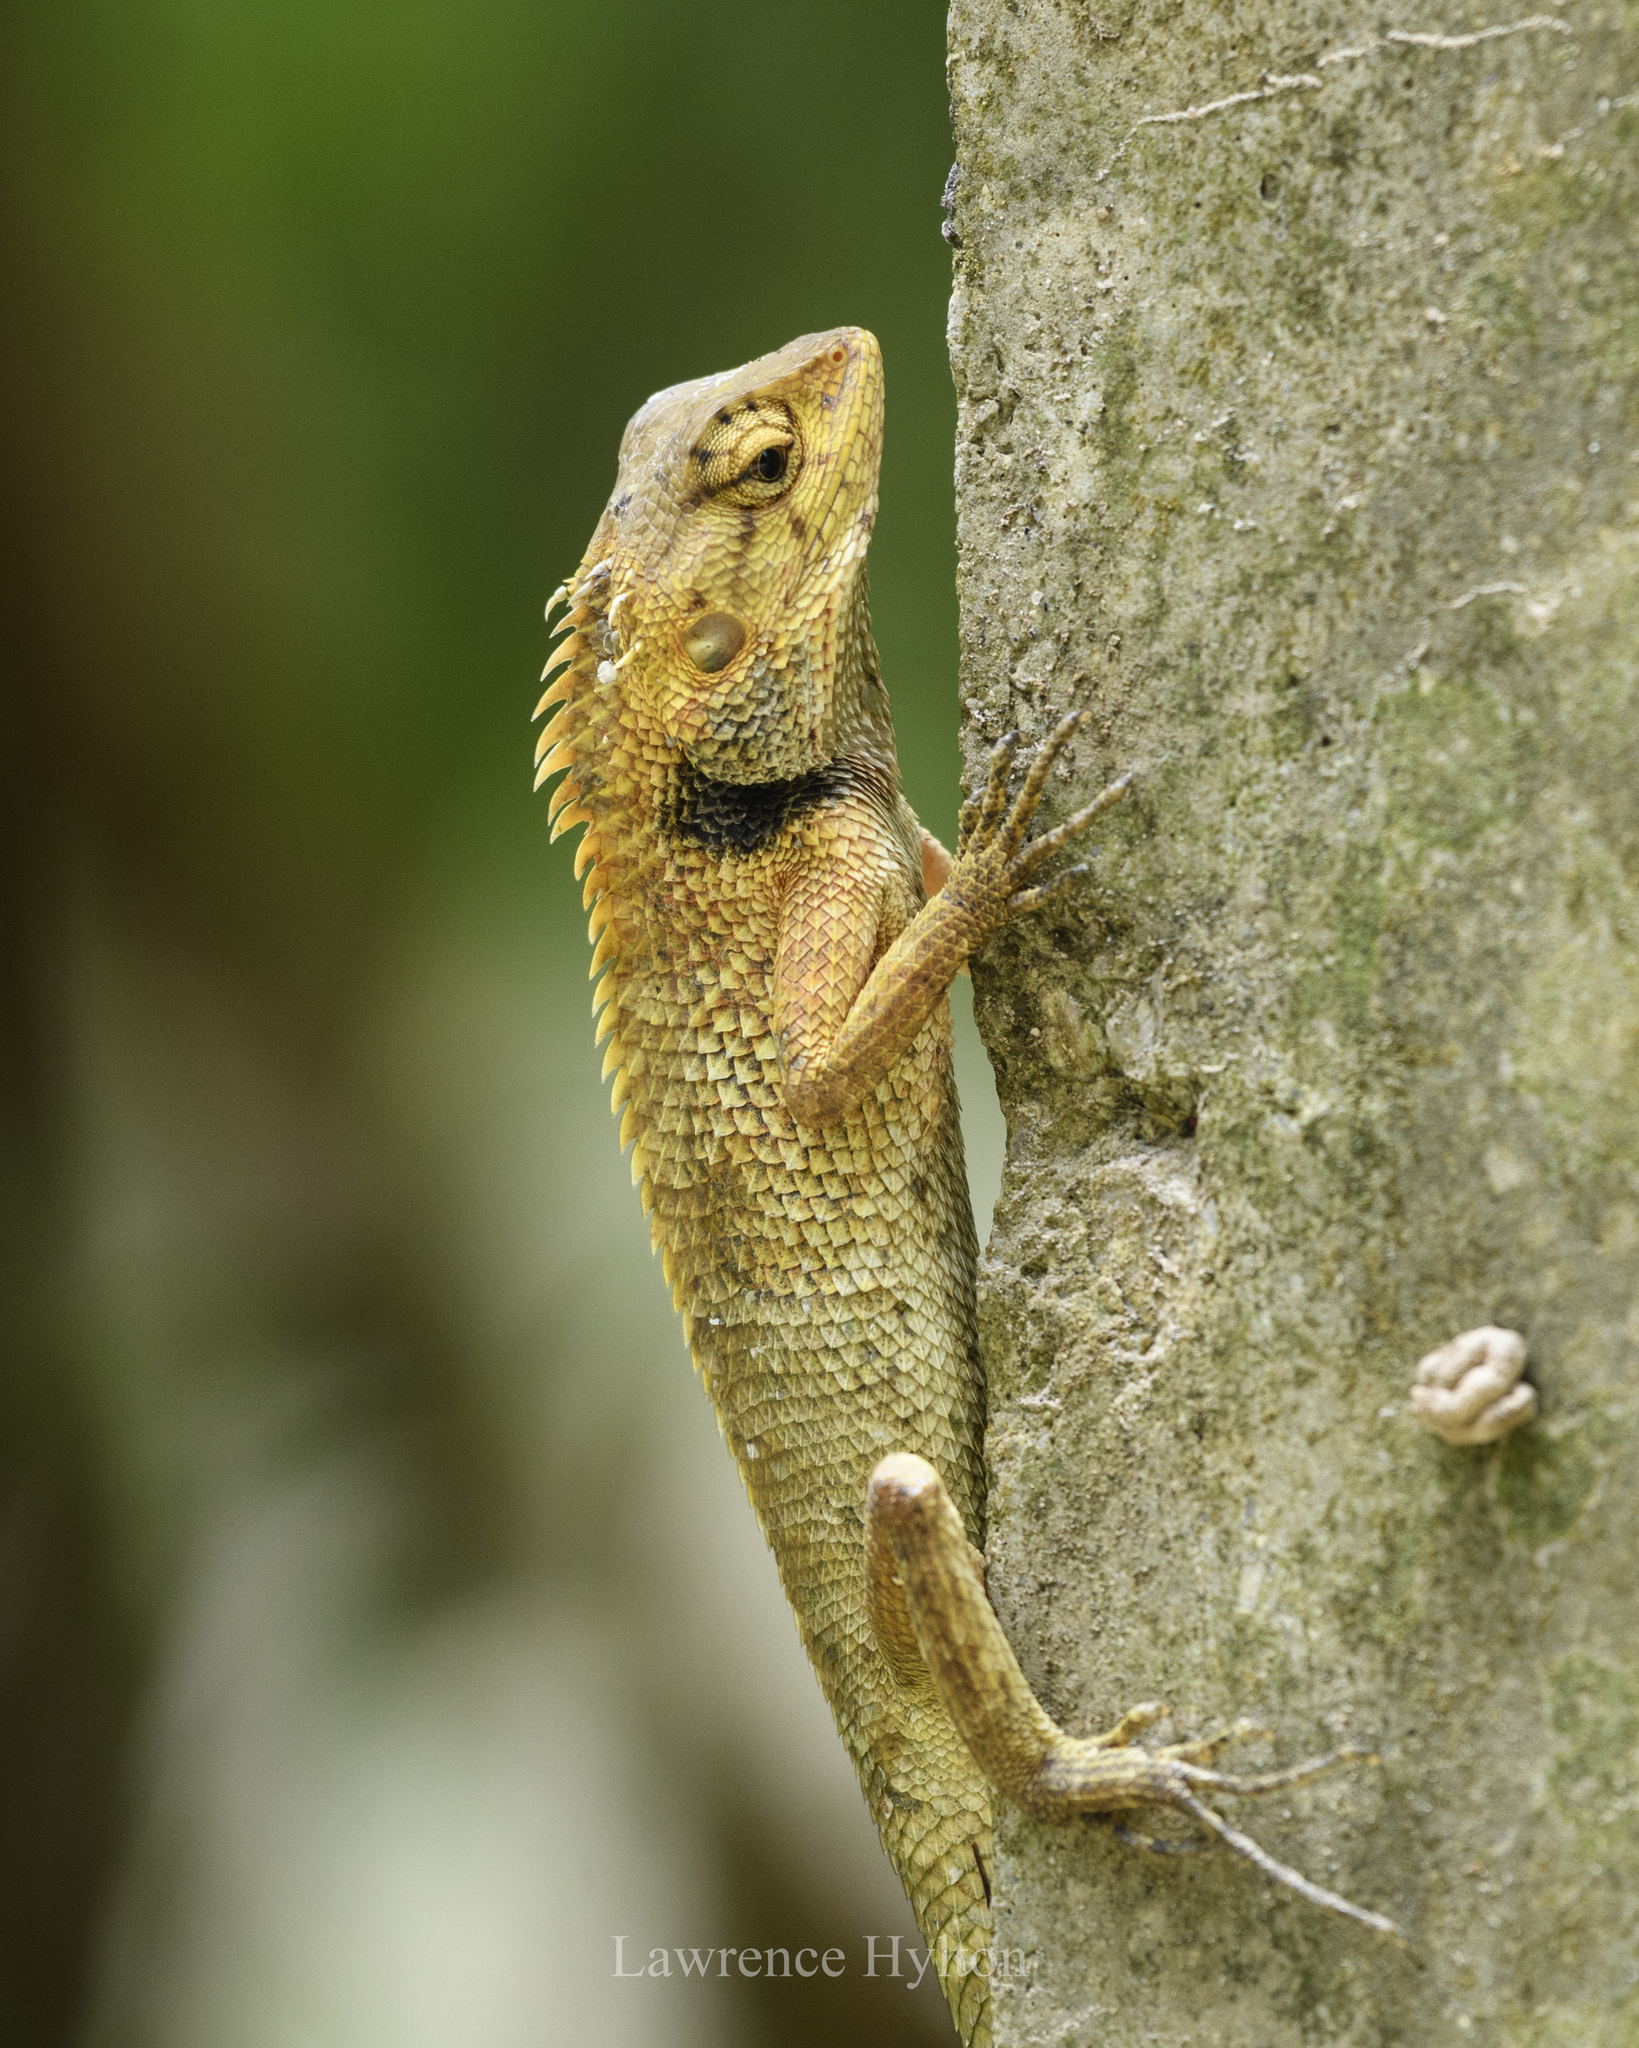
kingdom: Animalia
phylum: Chordata
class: Squamata
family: Agamidae
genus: Calotes
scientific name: Calotes versicolor
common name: Oriental garden lizard
